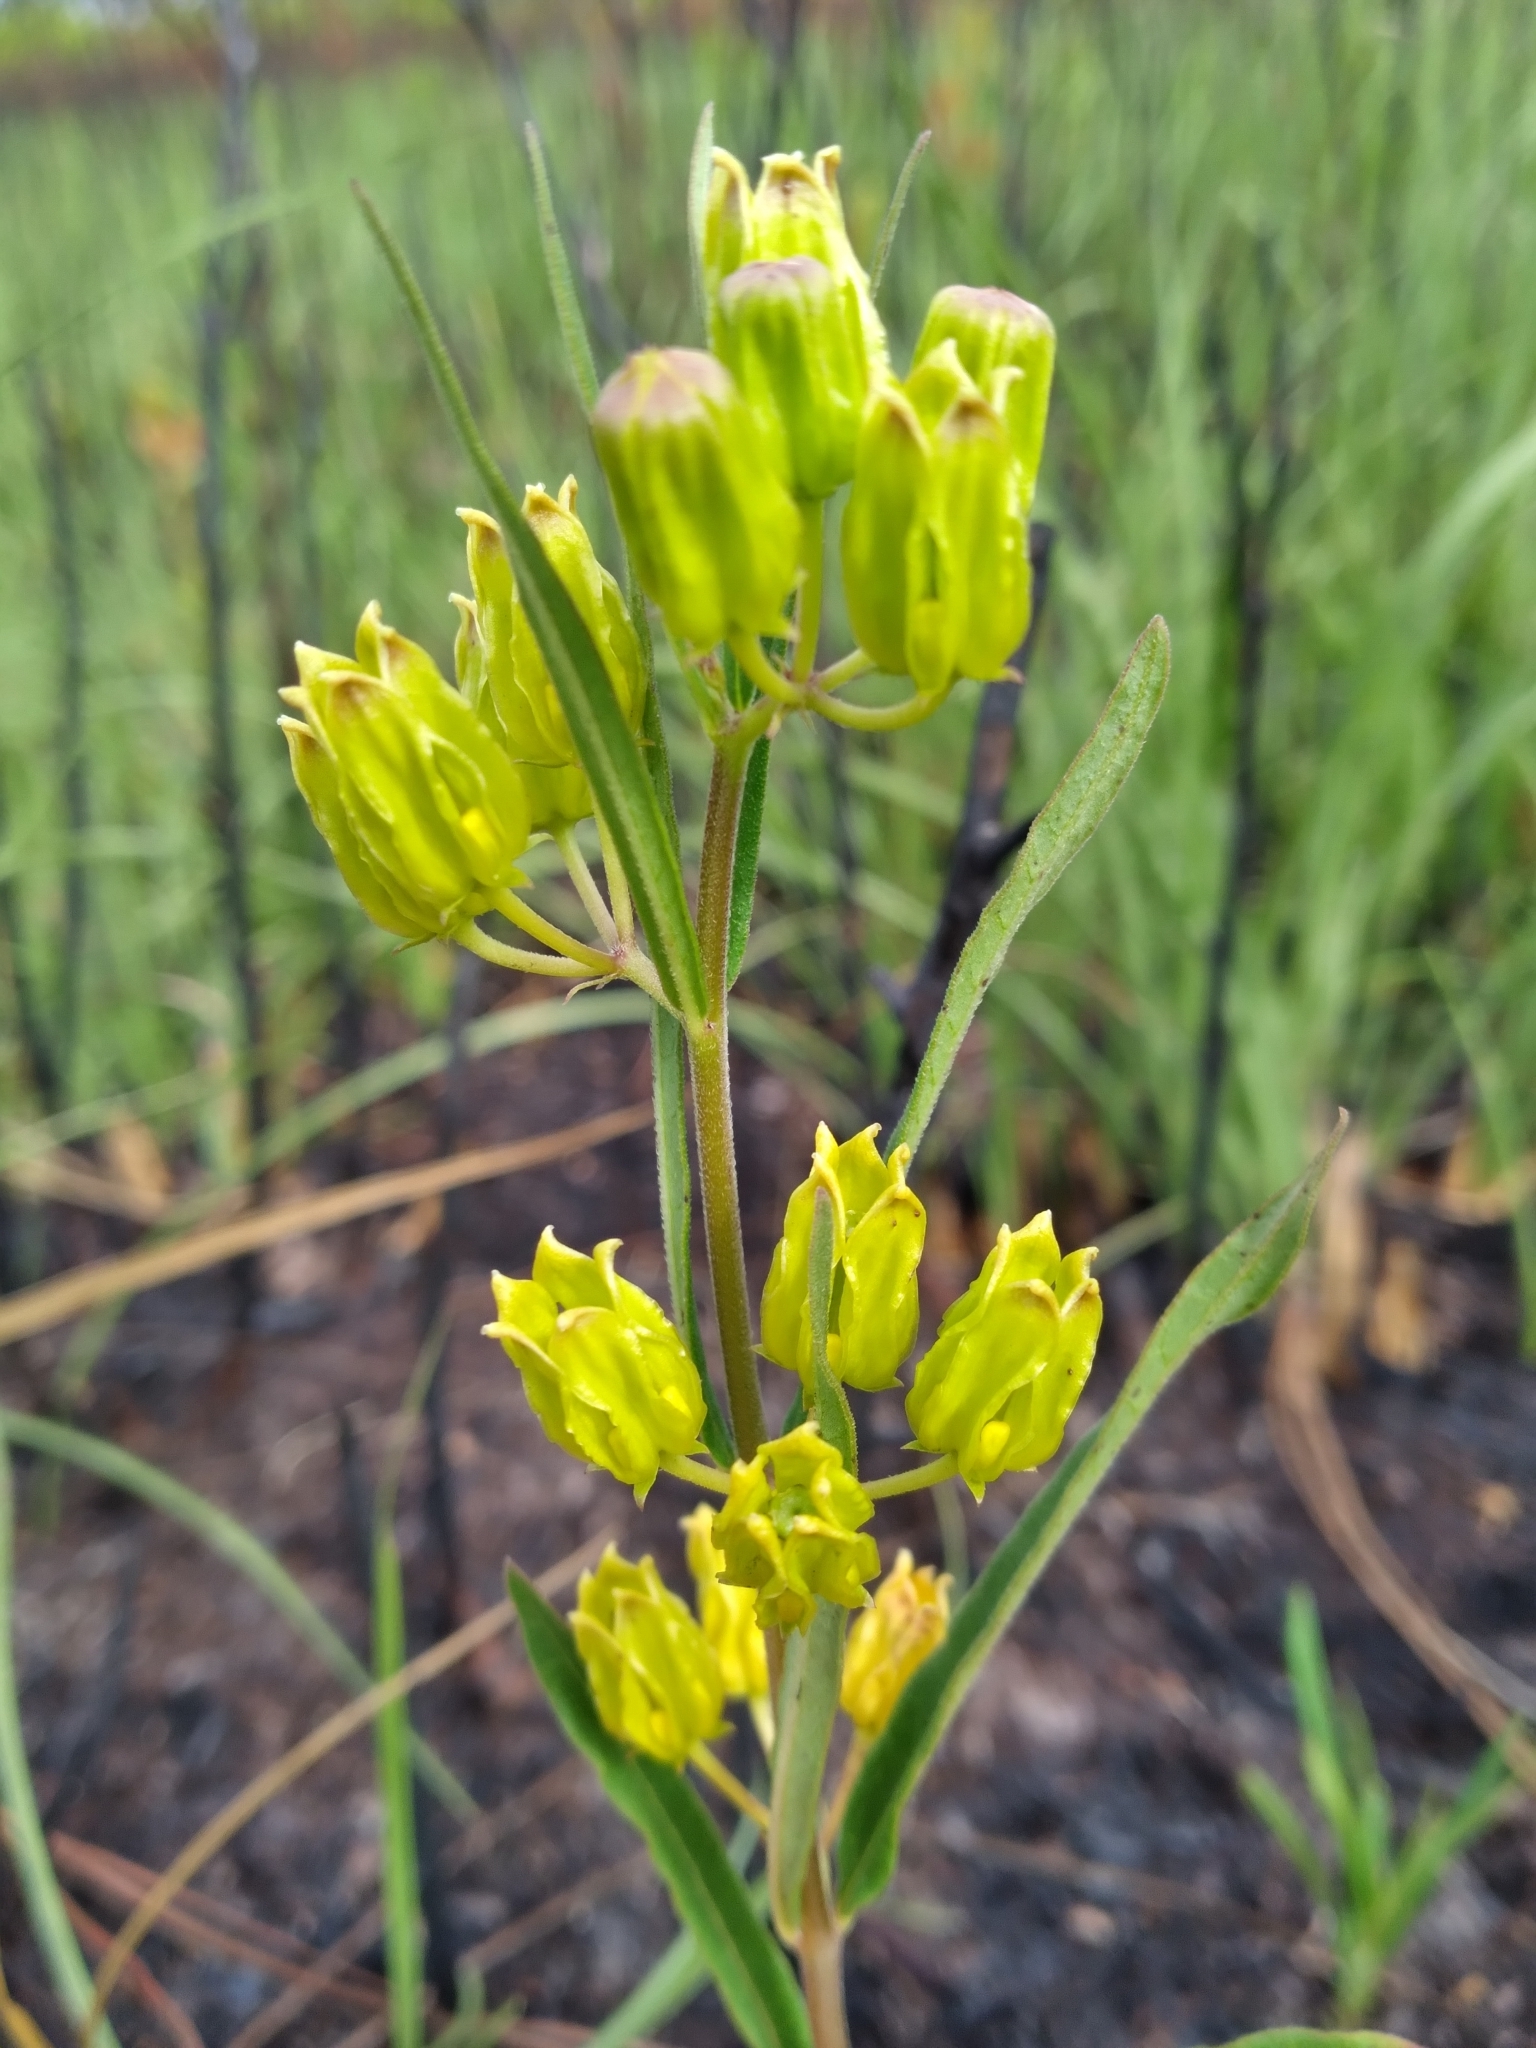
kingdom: Plantae
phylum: Tracheophyta
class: Magnoliopsida
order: Gentianales
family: Apocynaceae
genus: Asclepias
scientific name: Asclepias pedicellata
